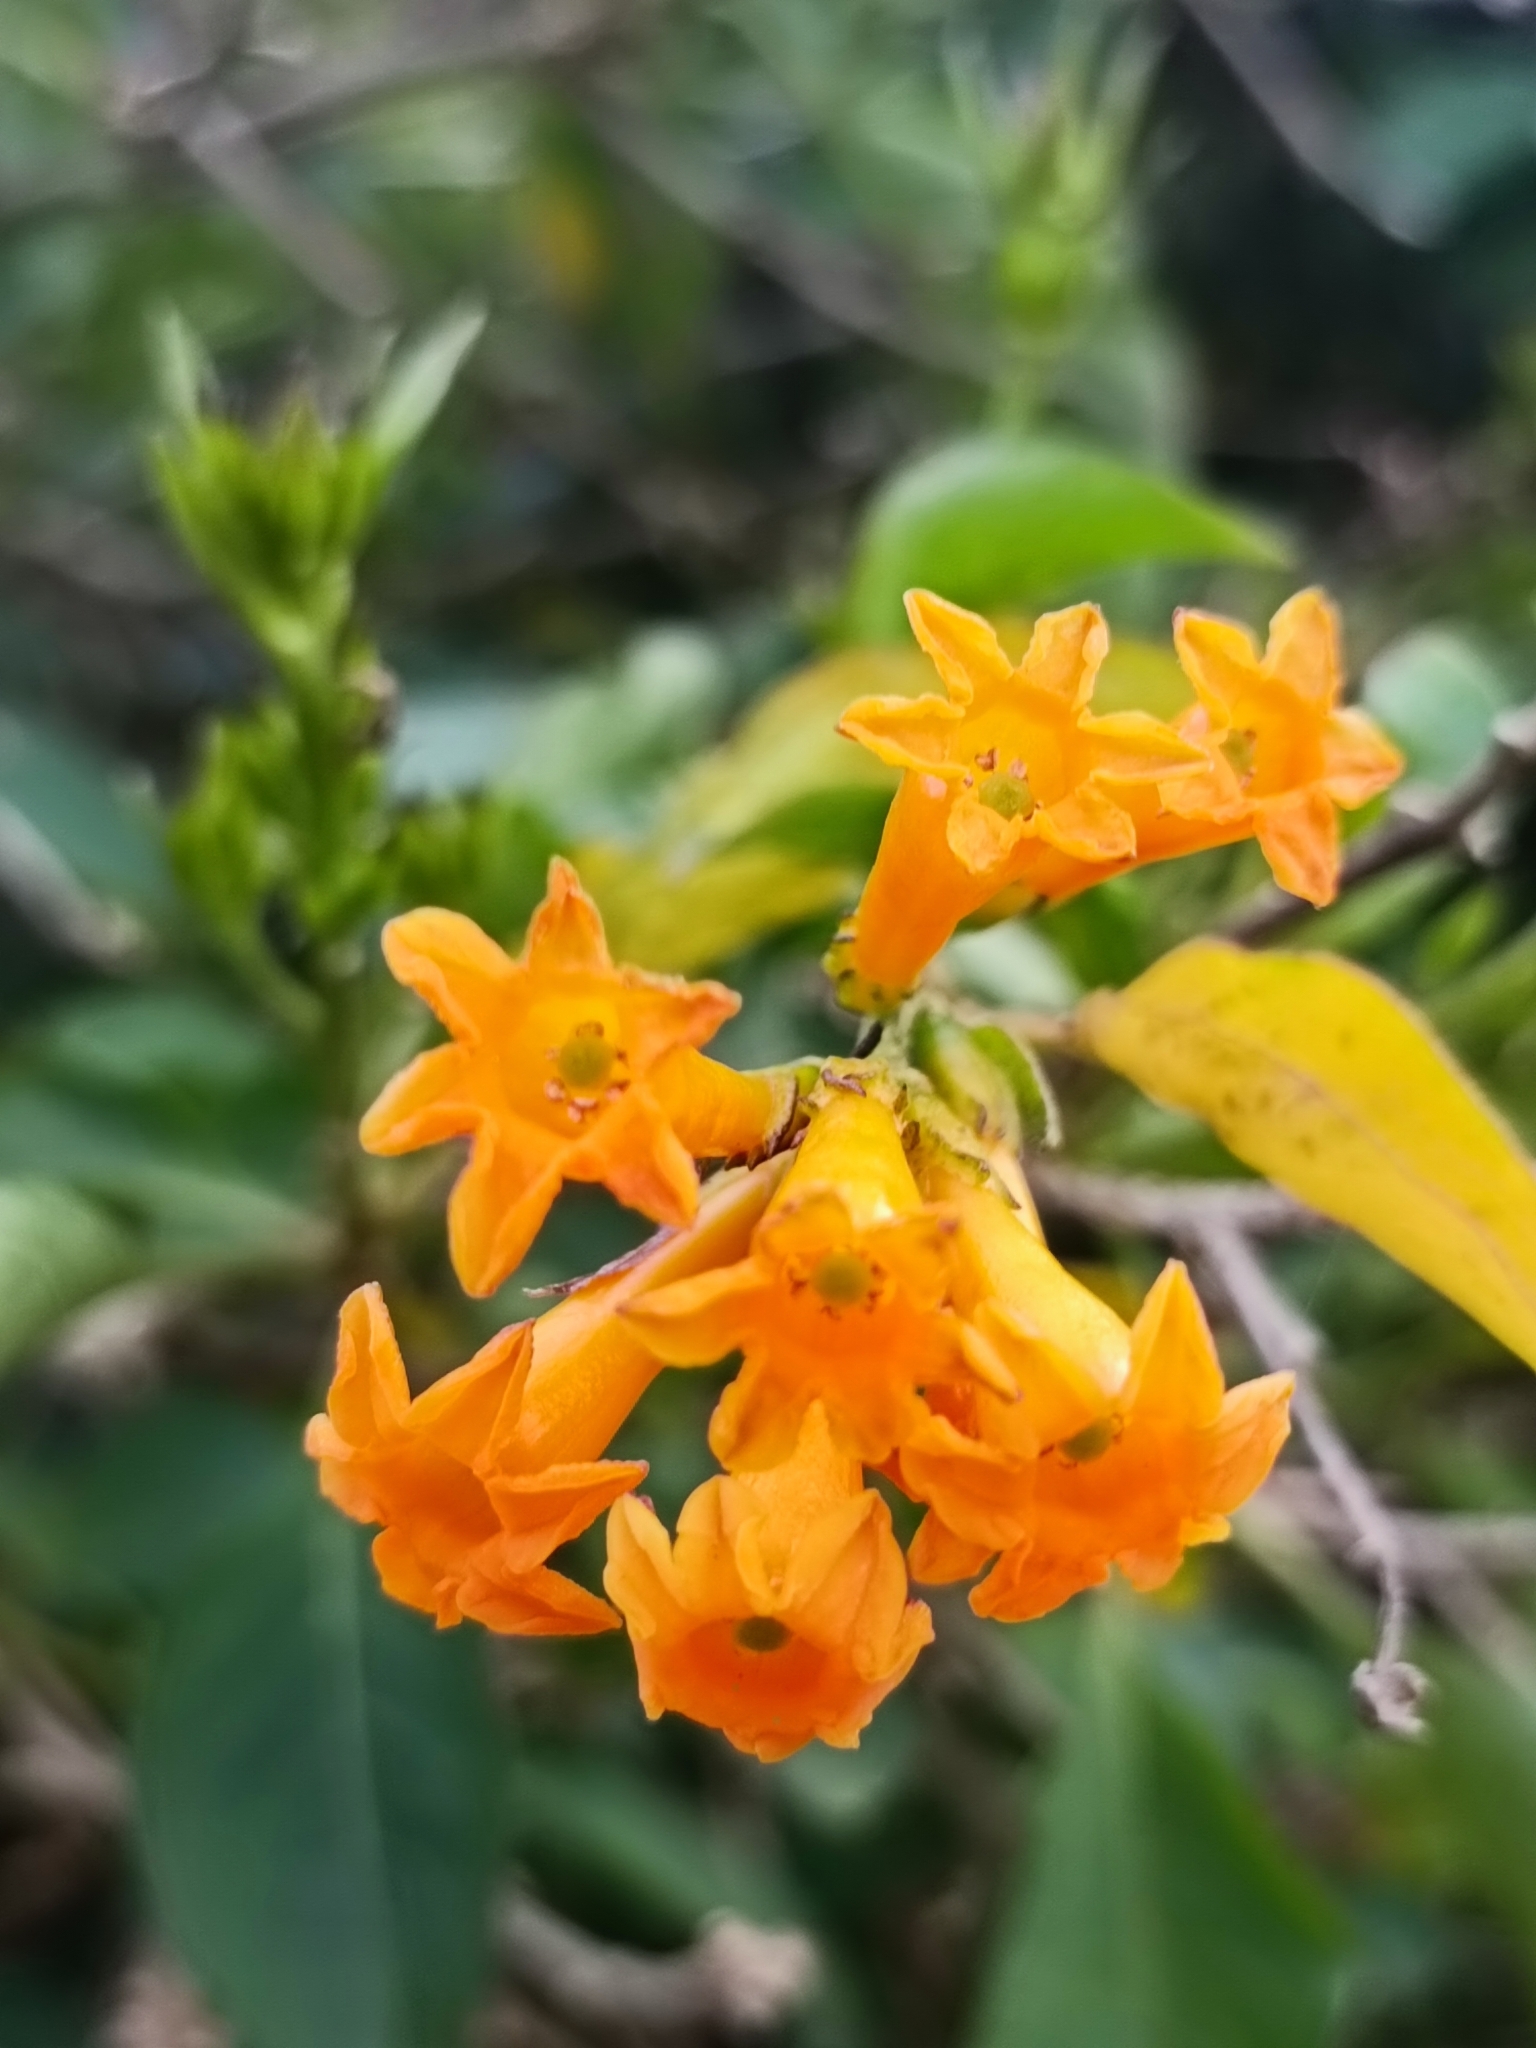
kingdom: Plantae
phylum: Tracheophyta
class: Magnoliopsida
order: Solanales
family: Solanaceae
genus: Cestrum
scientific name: Cestrum aurantiacum
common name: Orange cestrum
